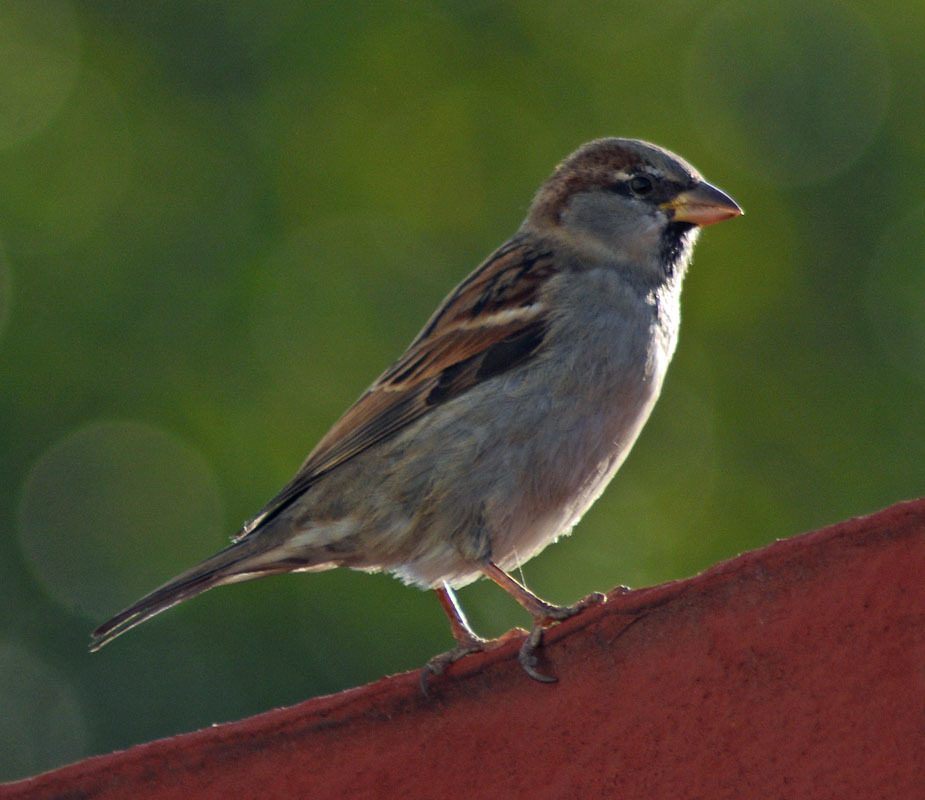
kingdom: Animalia
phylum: Chordata
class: Aves
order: Passeriformes
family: Passeridae
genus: Passer
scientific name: Passer domesticus
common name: House sparrow
